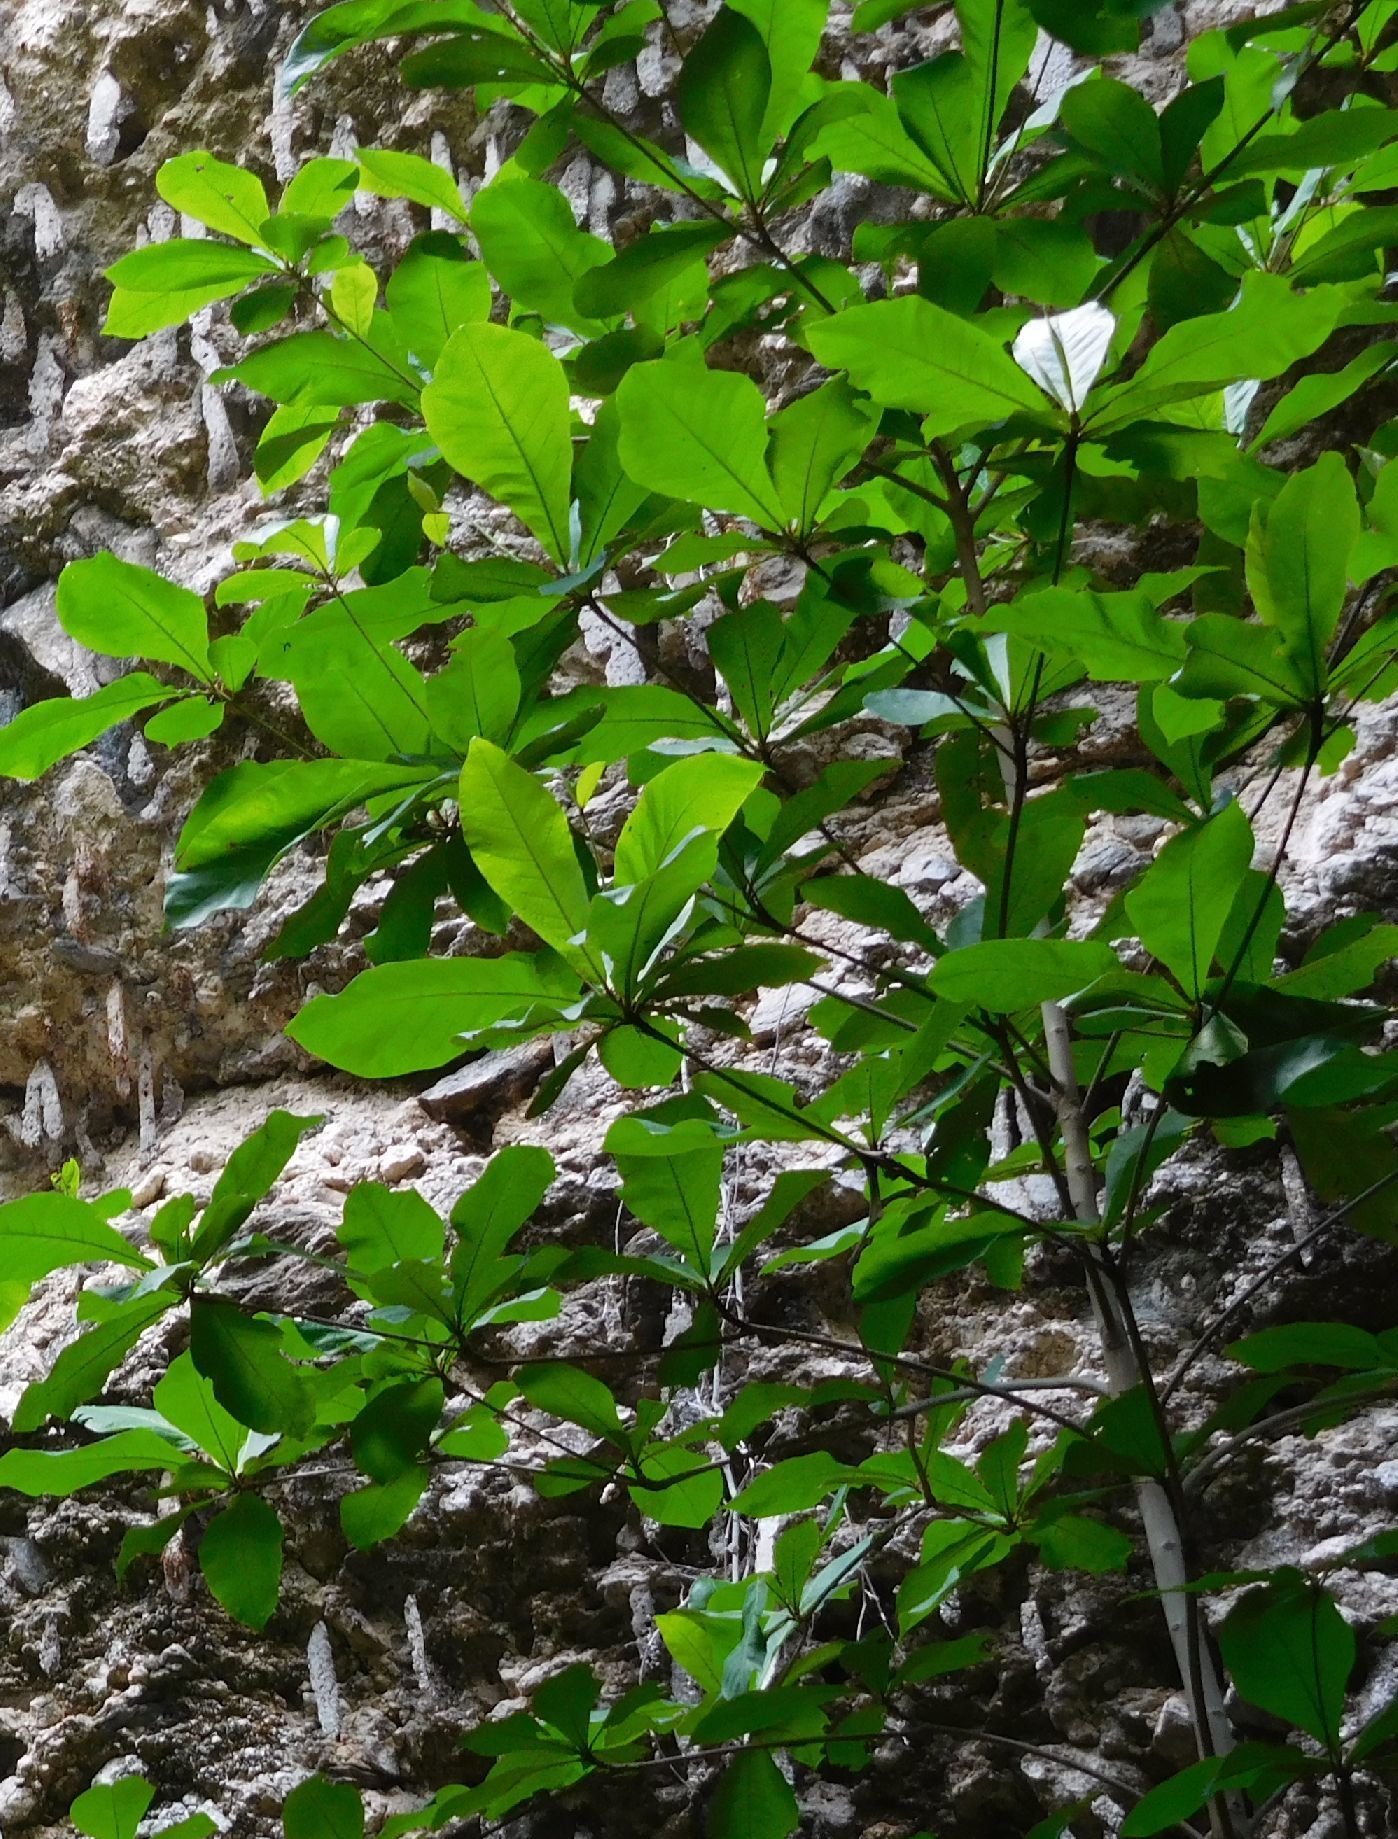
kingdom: Plantae
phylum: Tracheophyta
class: Magnoliopsida
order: Myrtales
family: Combretaceae
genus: Terminalia
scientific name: Terminalia catappa
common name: Tropical almond
